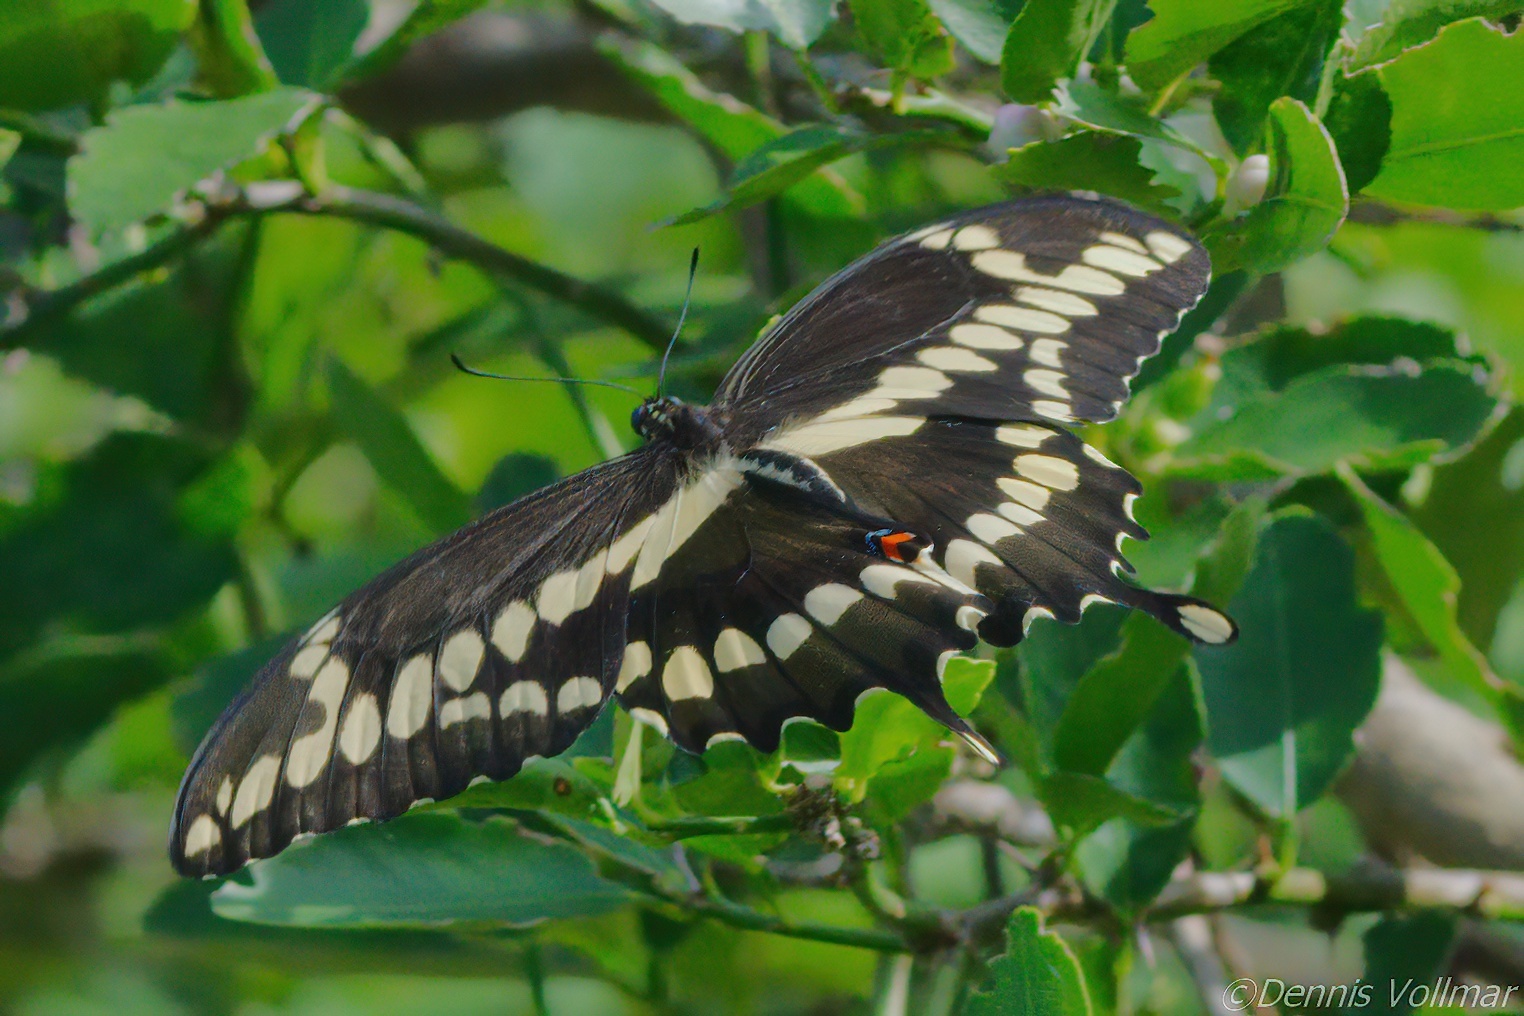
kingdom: Animalia
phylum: Arthropoda
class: Insecta
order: Lepidoptera
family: Papilionidae
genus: Papilio
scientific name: Papilio cresphontes
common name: Giant swallowtail
